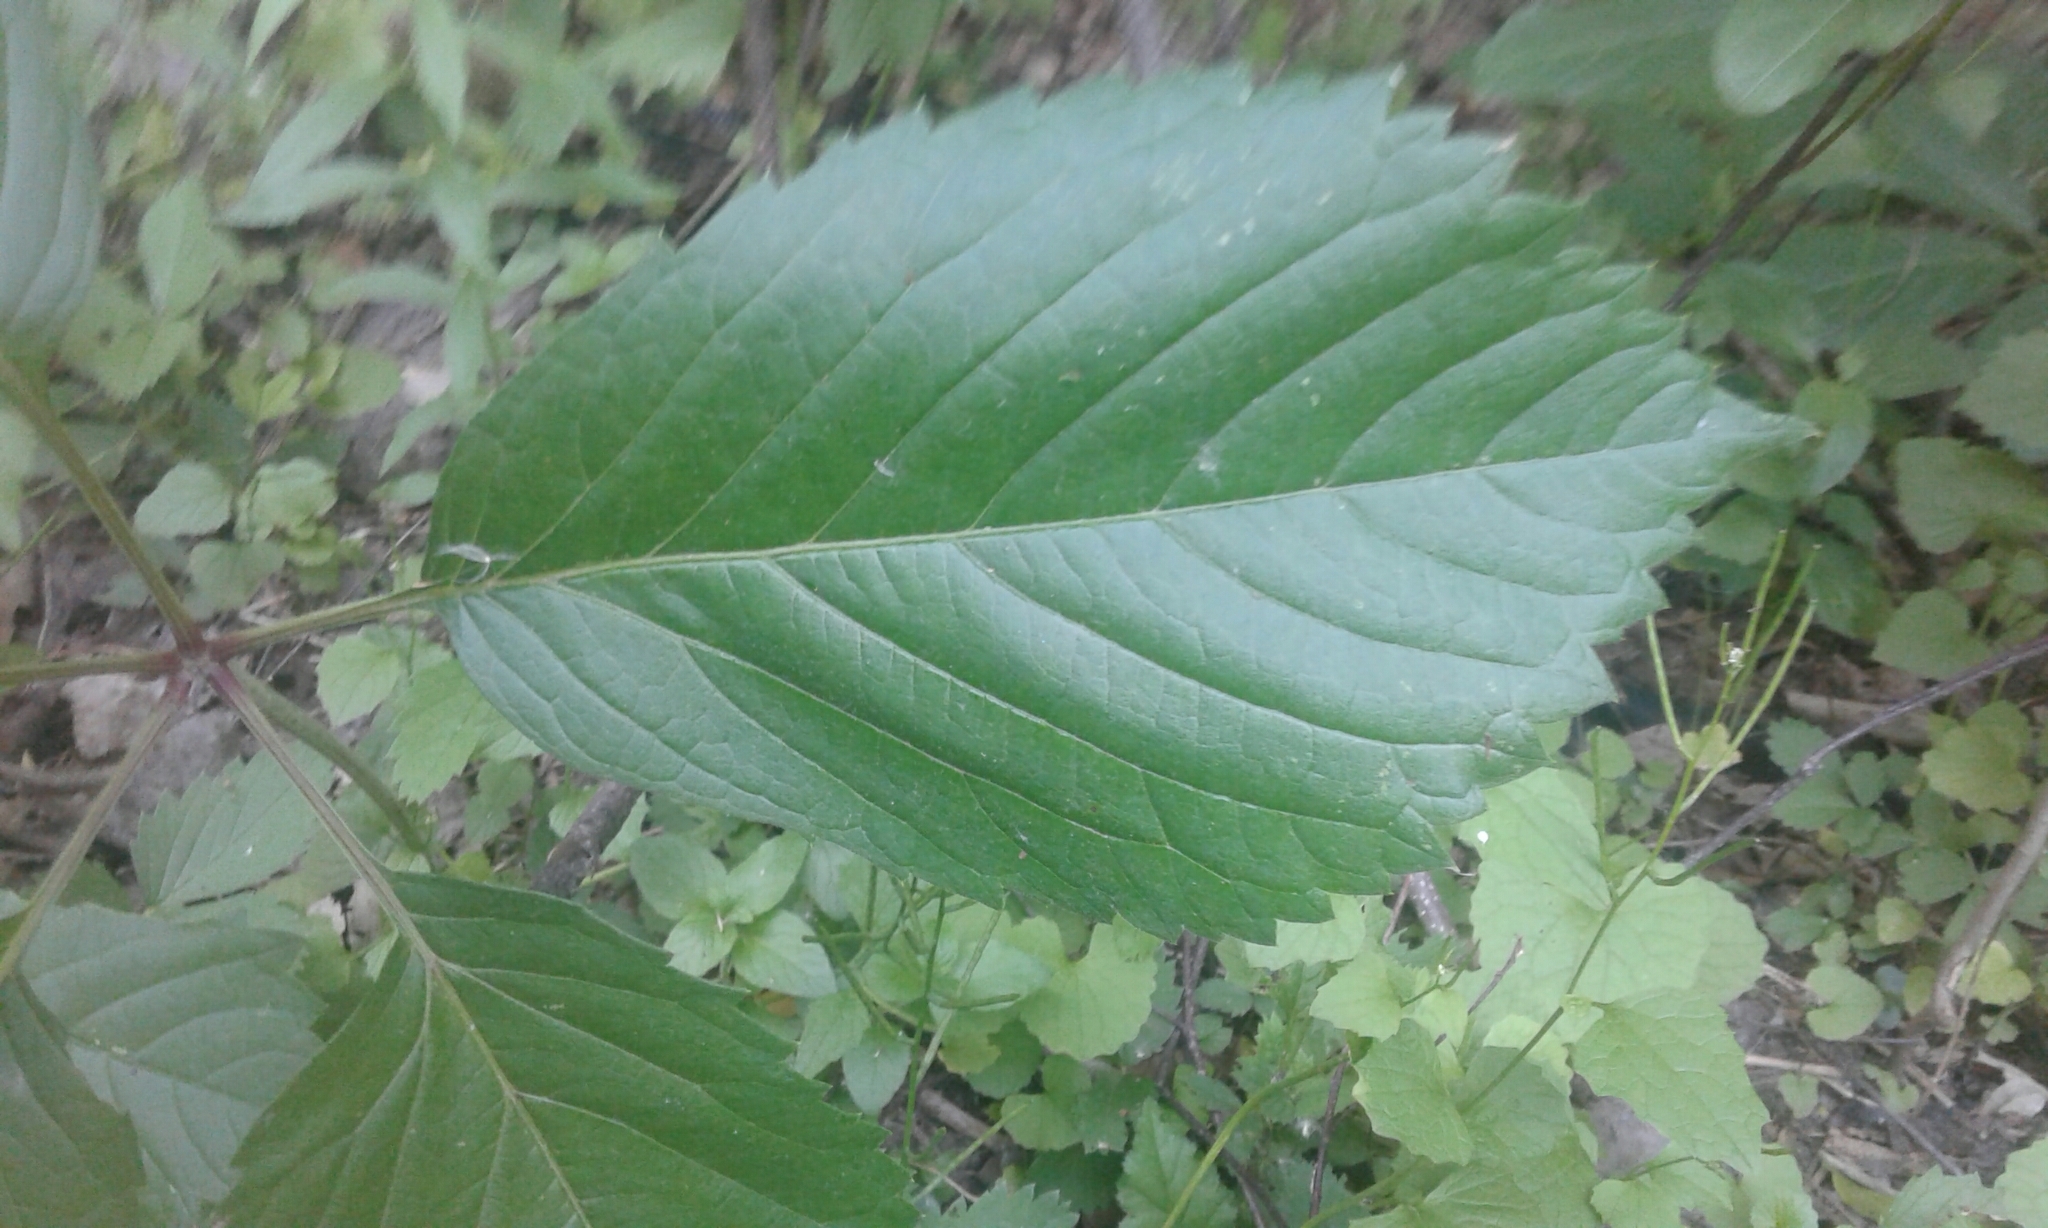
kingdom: Plantae
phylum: Tracheophyta
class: Magnoliopsida
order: Vitales
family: Vitaceae
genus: Parthenocissus
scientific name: Parthenocissus inserta
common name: False virginia-creeper
